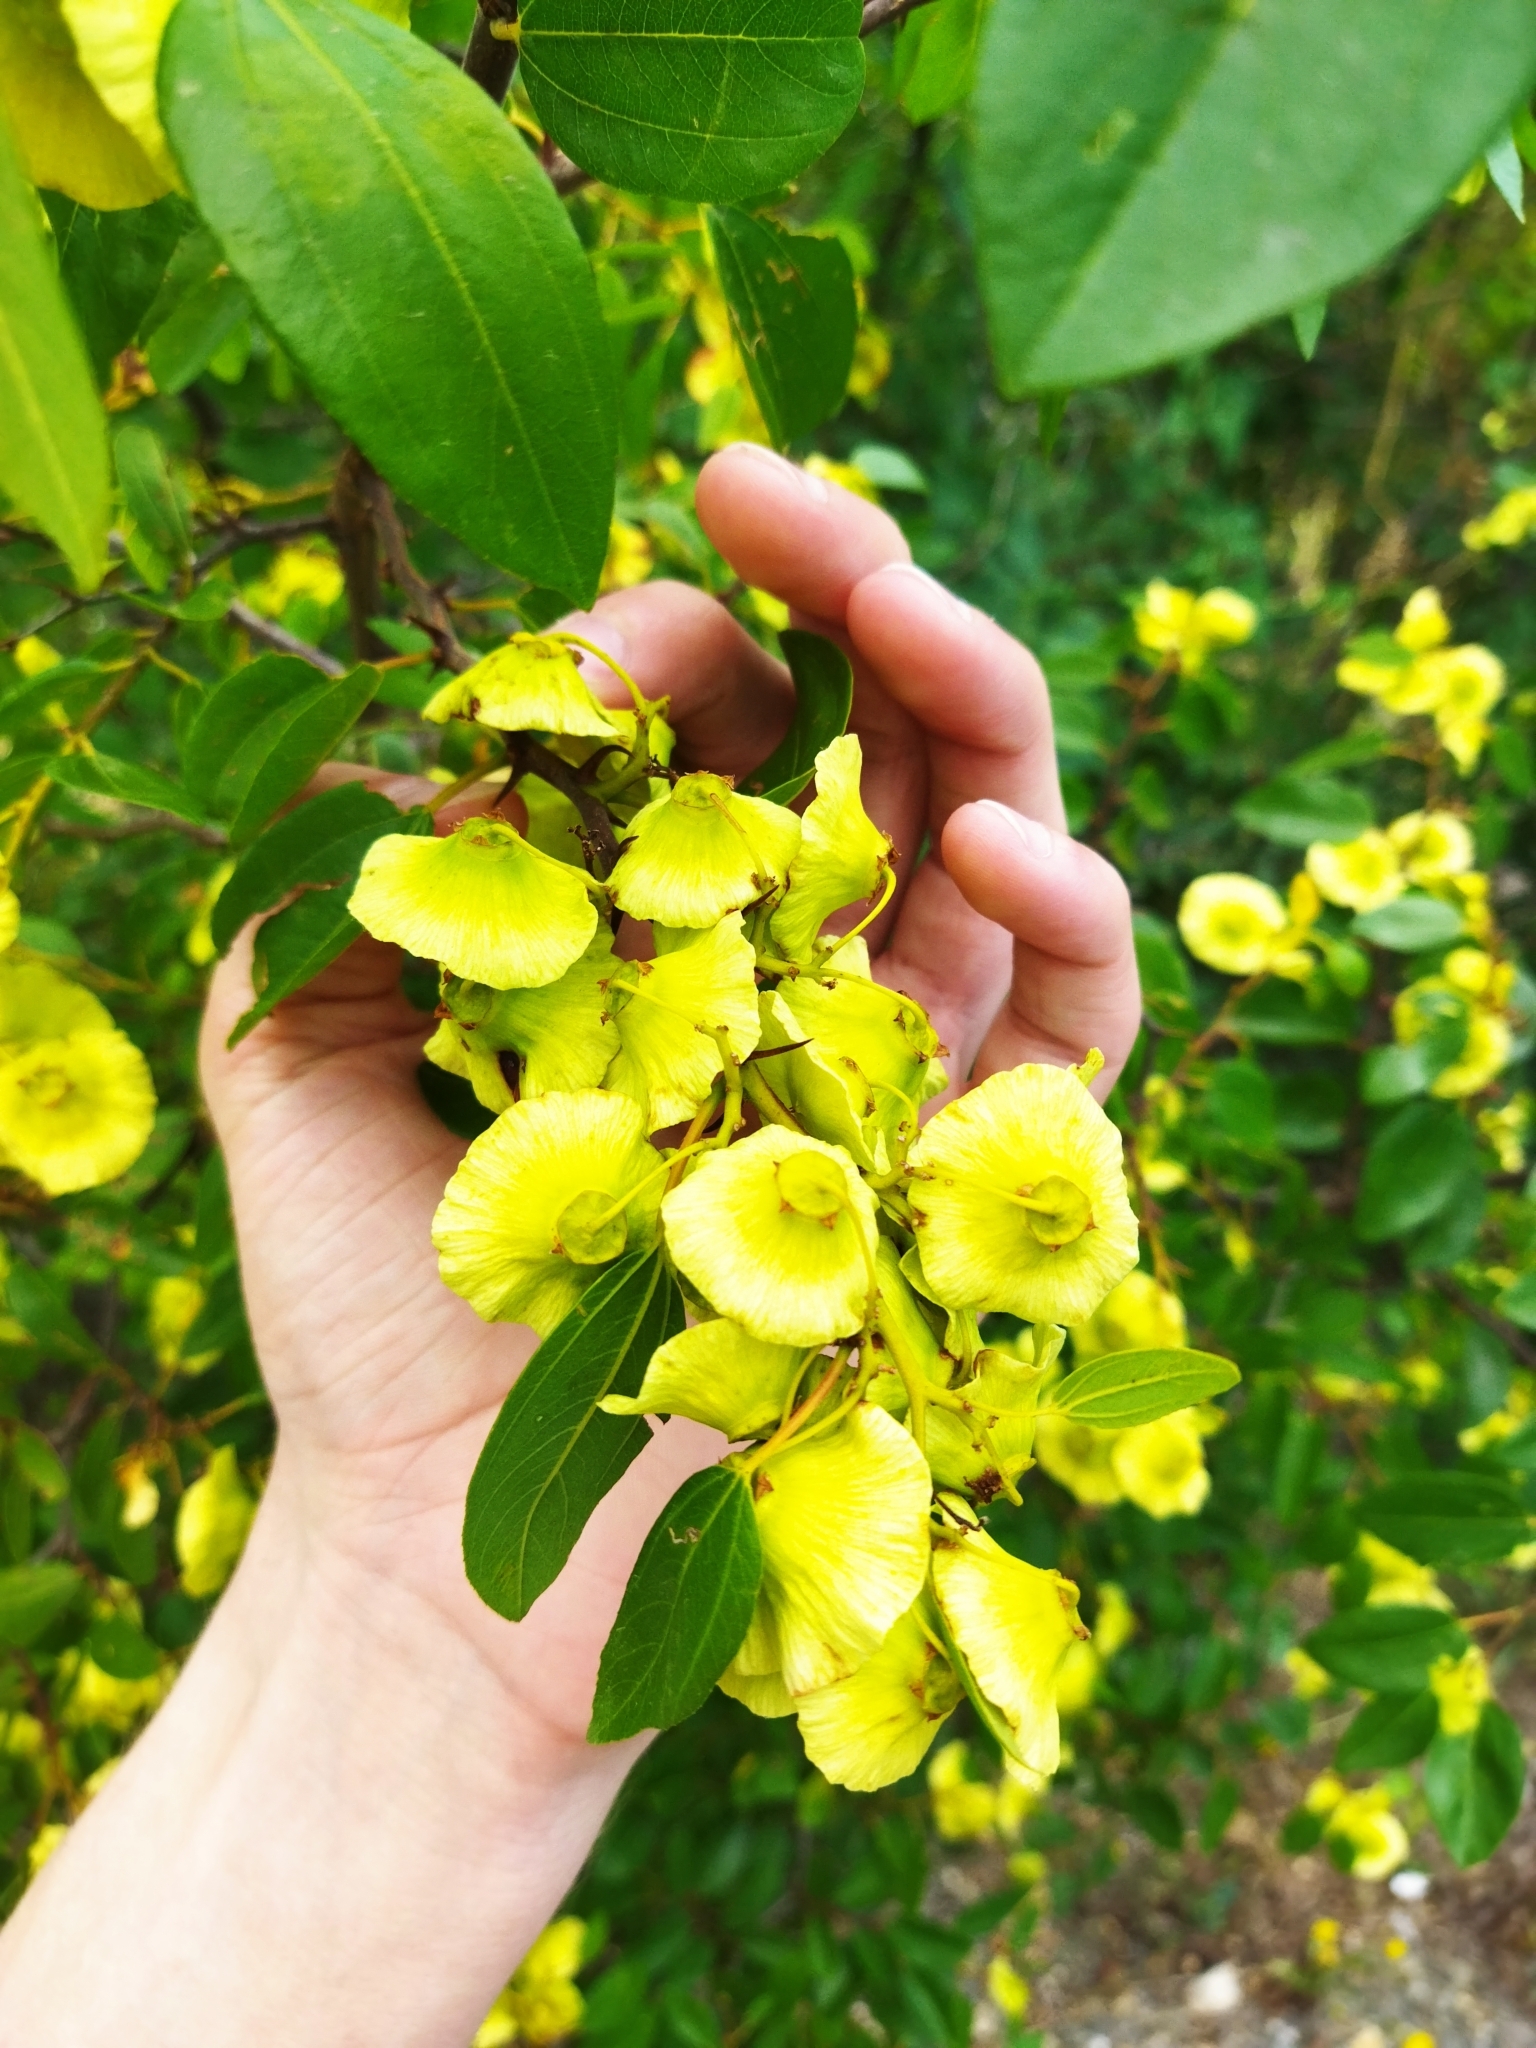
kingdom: Plantae
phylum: Tracheophyta
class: Magnoliopsida
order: Rosales
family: Rhamnaceae
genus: Paliurus
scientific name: Paliurus spina-christi
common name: Jeruselem thorn
